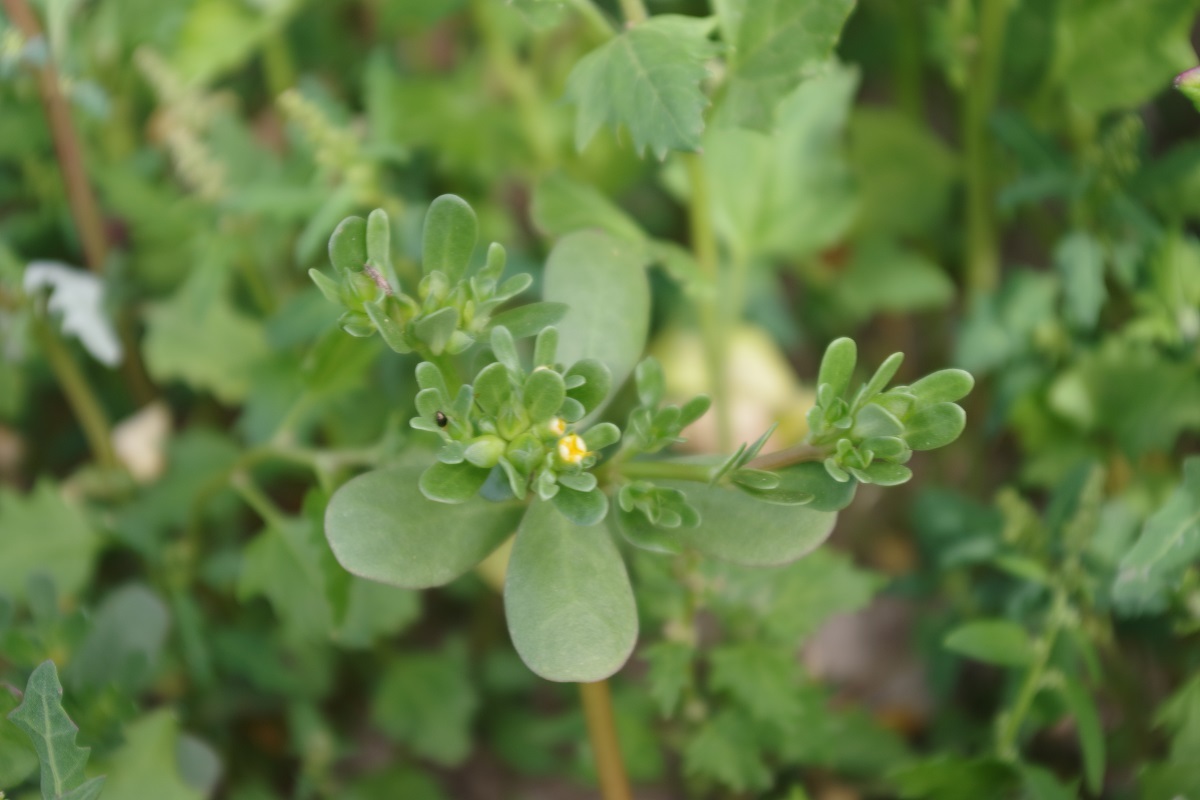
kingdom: Plantae
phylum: Tracheophyta
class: Magnoliopsida
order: Caryophyllales
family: Portulacaceae
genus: Portulaca
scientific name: Portulaca oleracea
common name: Common purslane
